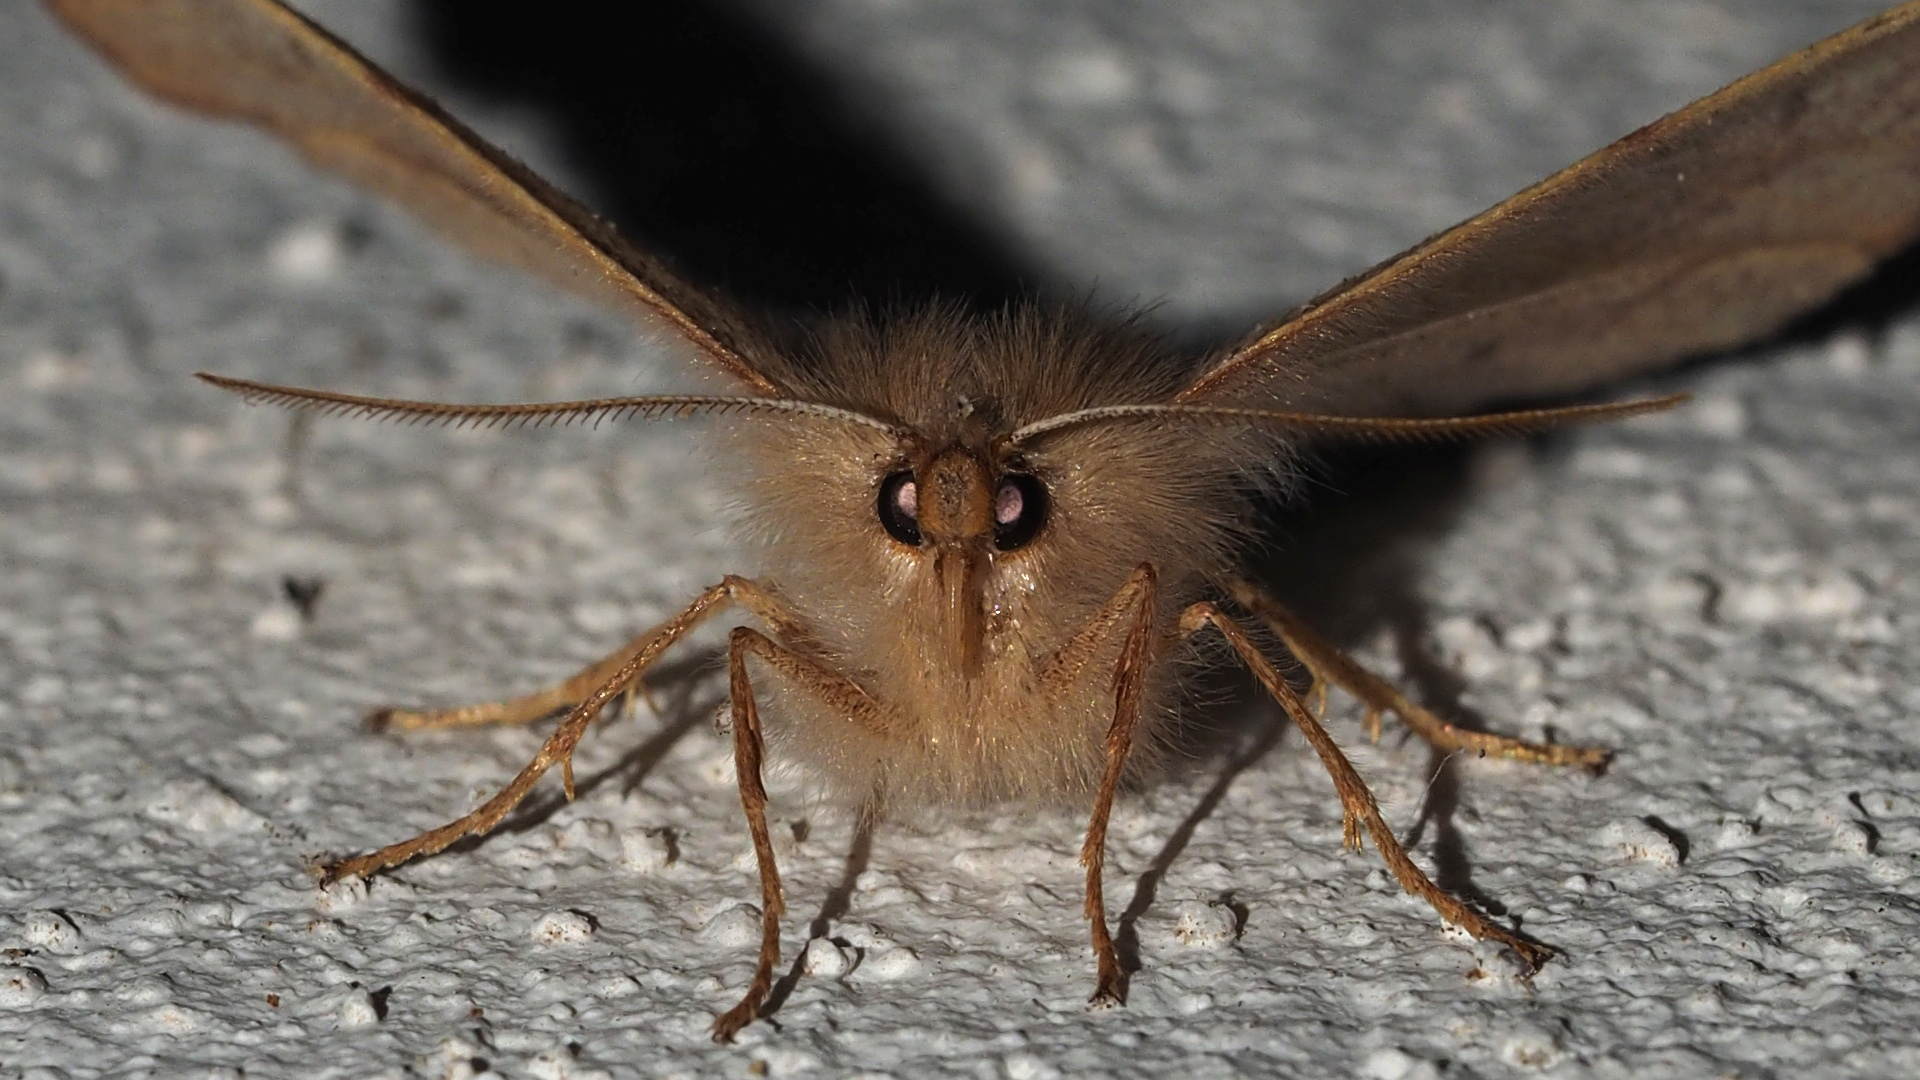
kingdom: Animalia
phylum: Arthropoda
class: Insecta
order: Lepidoptera
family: Geometridae
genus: Colotois
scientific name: Colotois pennaria
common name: Feathered thorn
